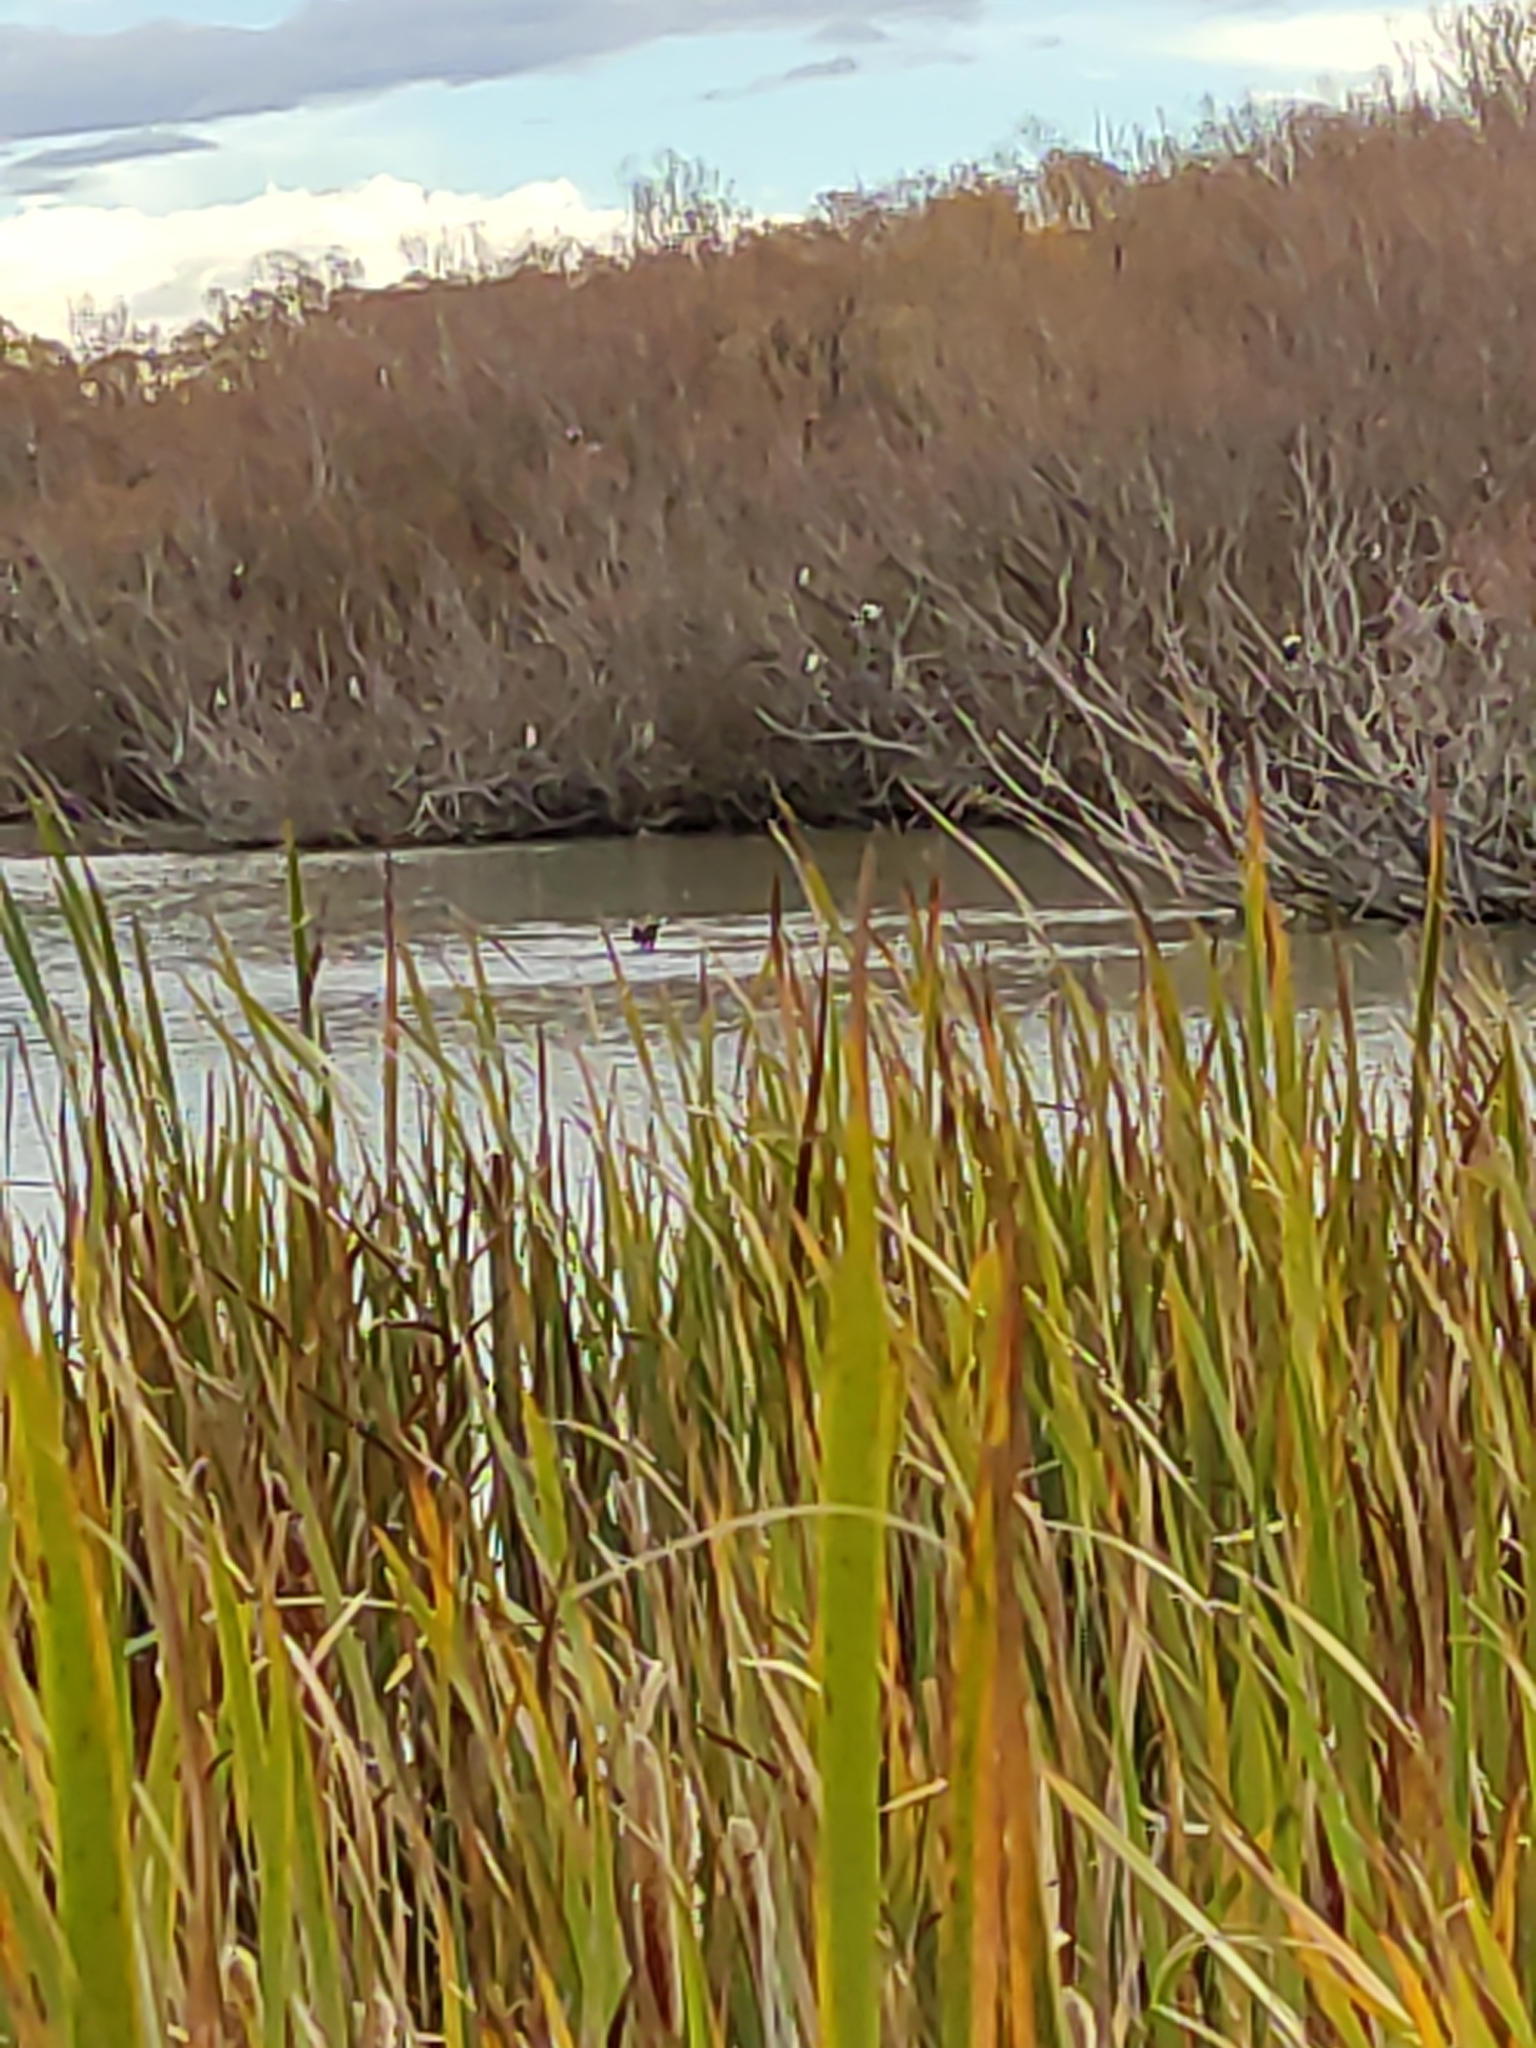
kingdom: Animalia
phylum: Chordata
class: Aves
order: Charadriiformes
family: Charadriidae
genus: Vanellus
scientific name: Vanellus miles
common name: Masked lapwing
